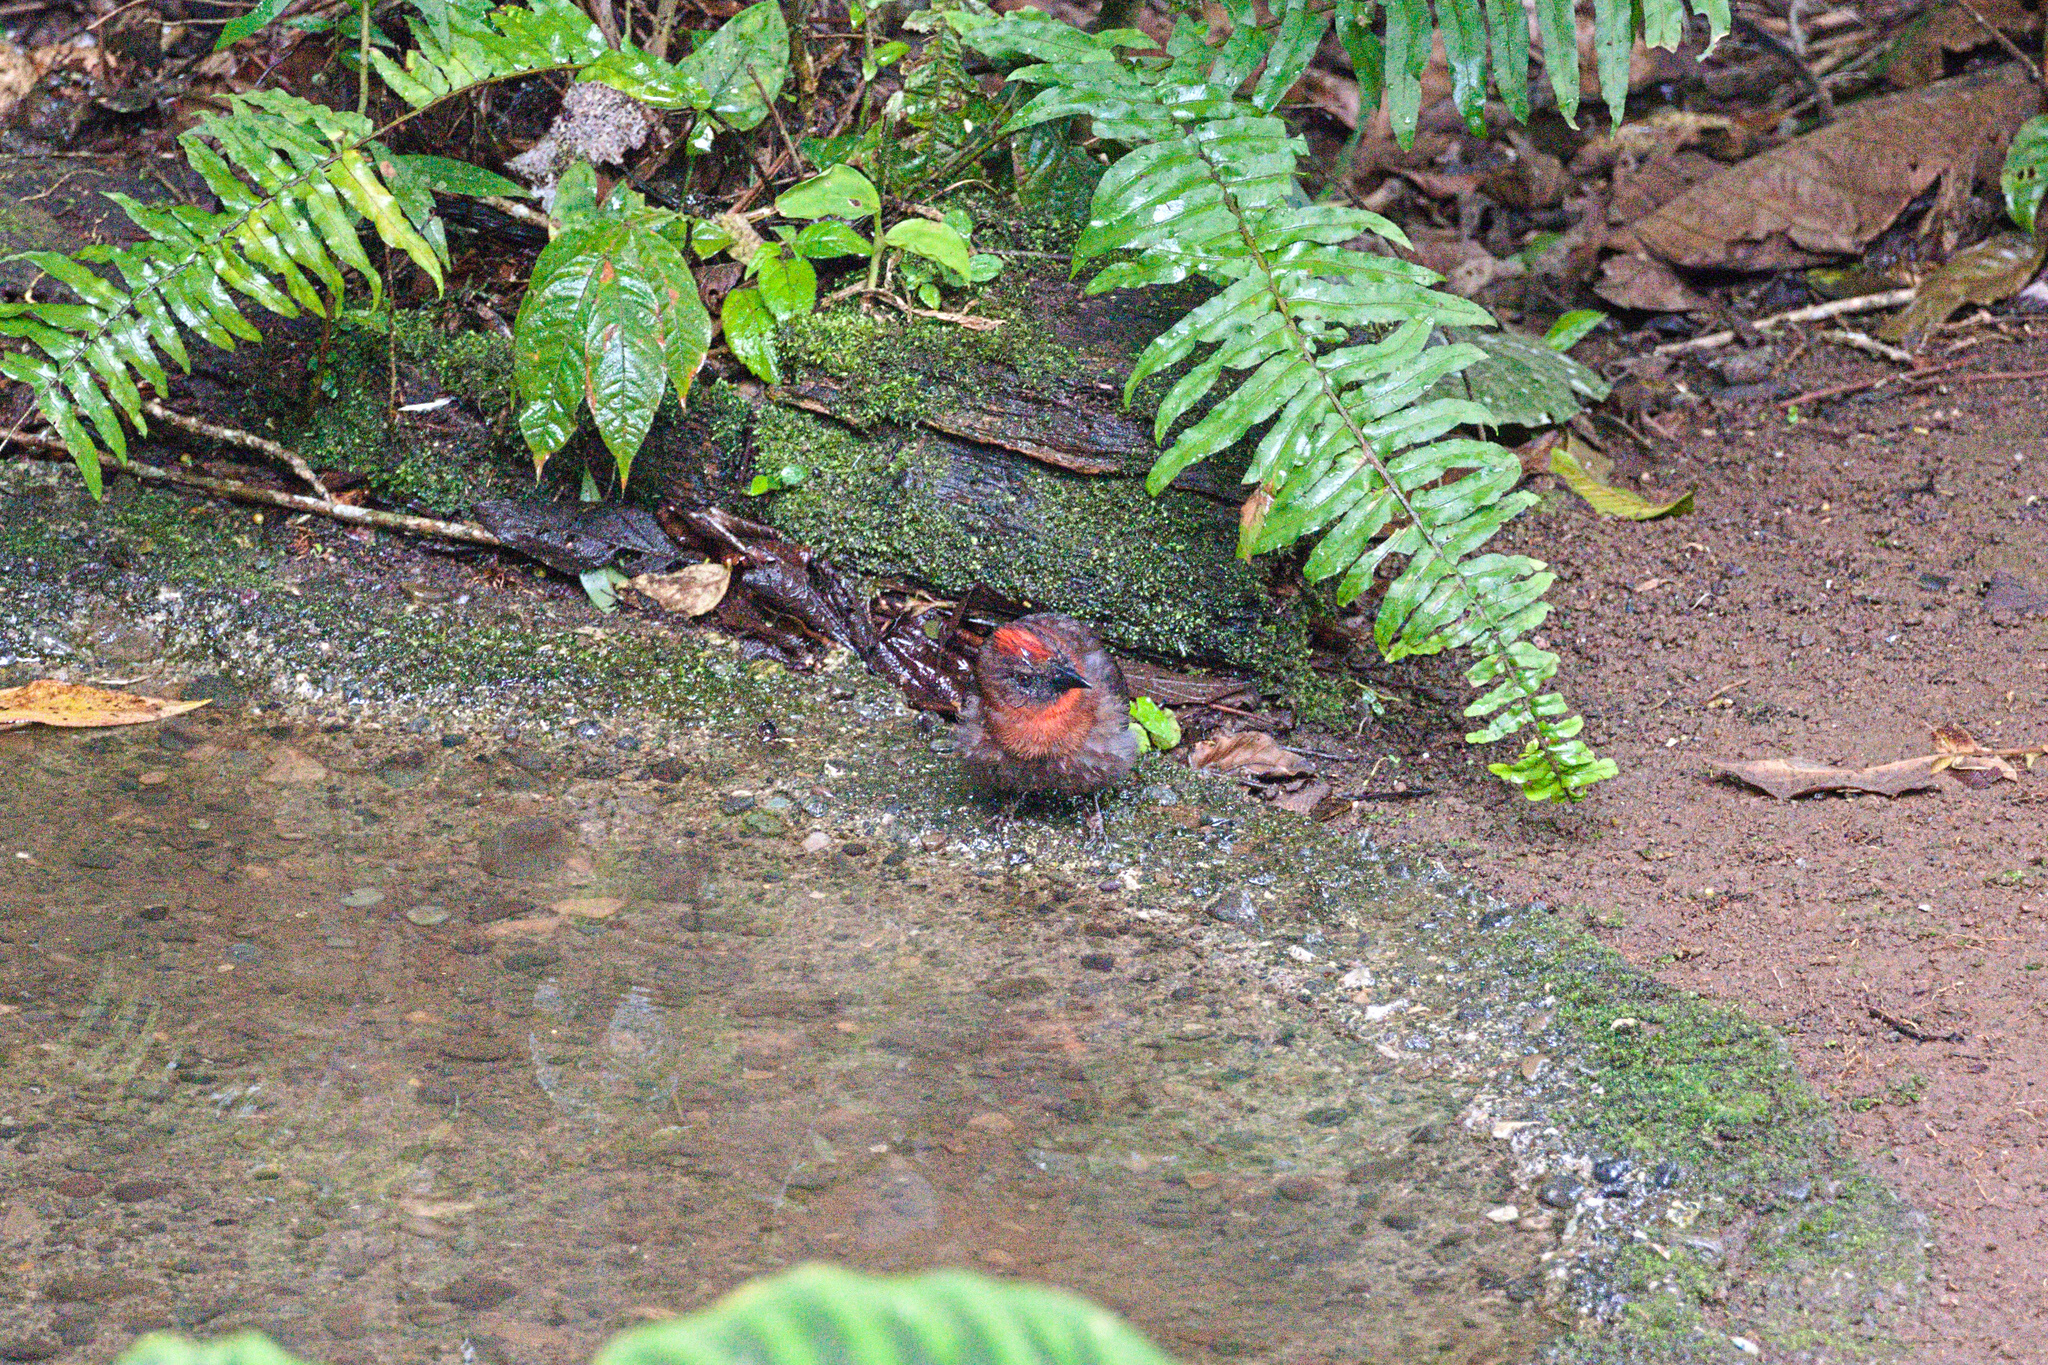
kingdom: Animalia
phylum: Chordata
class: Aves
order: Passeriformes
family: Cardinalidae
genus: Habia
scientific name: Habia fuscicauda
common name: Red-throated ant-tanager
